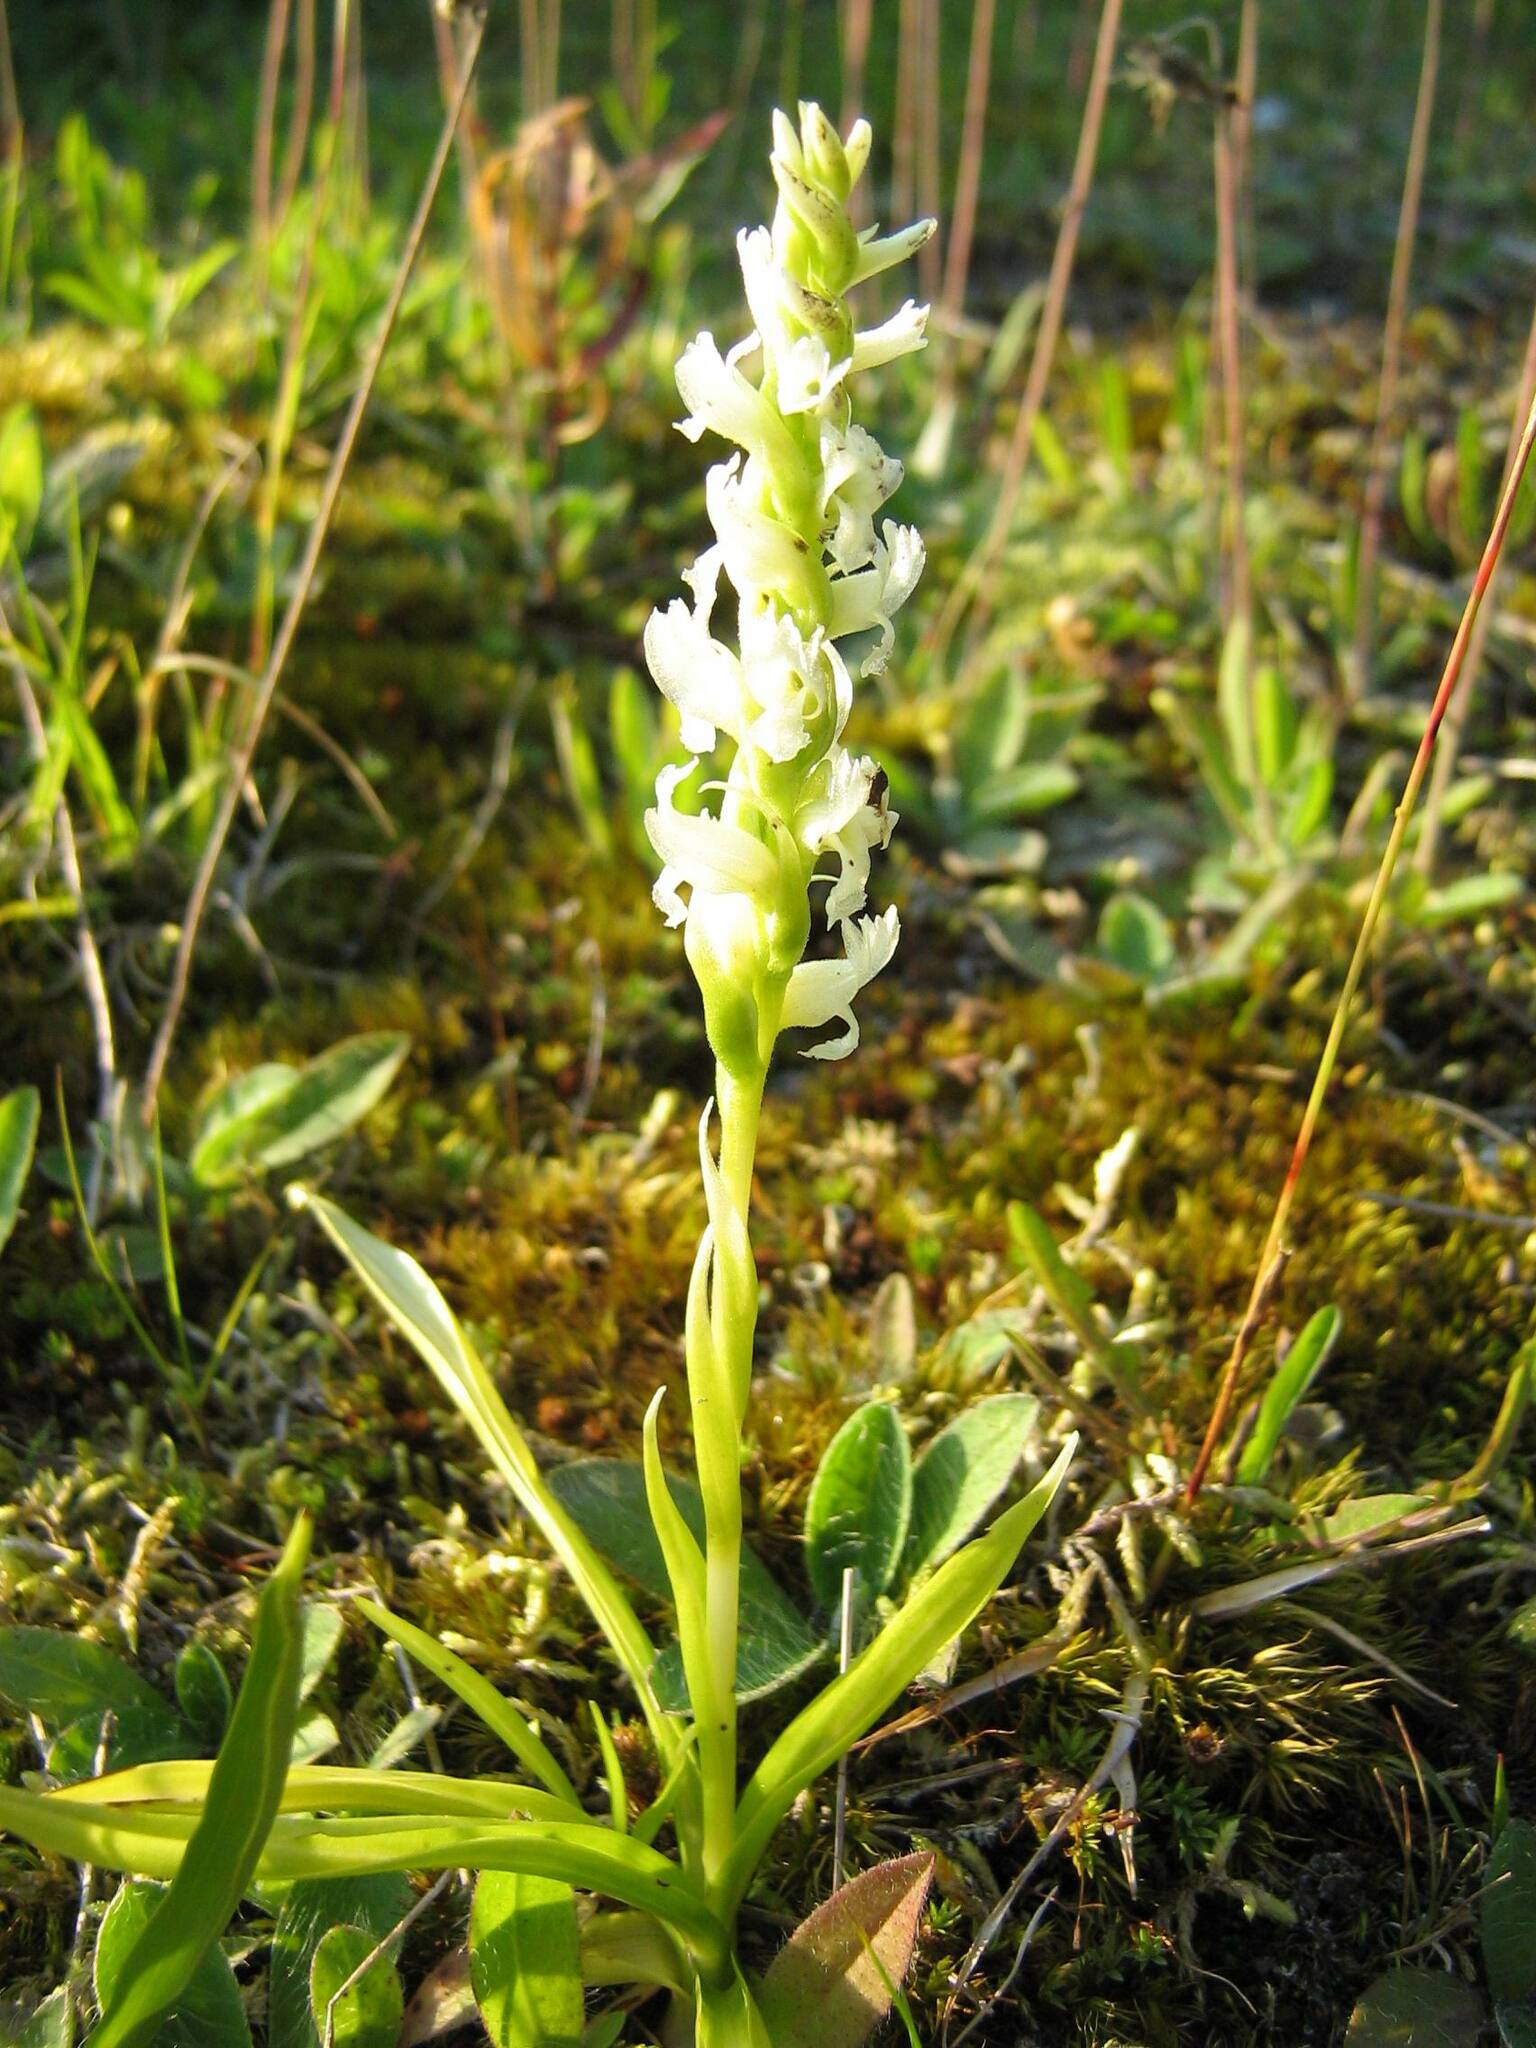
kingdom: Plantae
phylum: Tracheophyta
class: Liliopsida
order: Asparagales
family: Orchidaceae
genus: Spiranthes
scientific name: Spiranthes romanzoffiana
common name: Irish lady's-tresses
